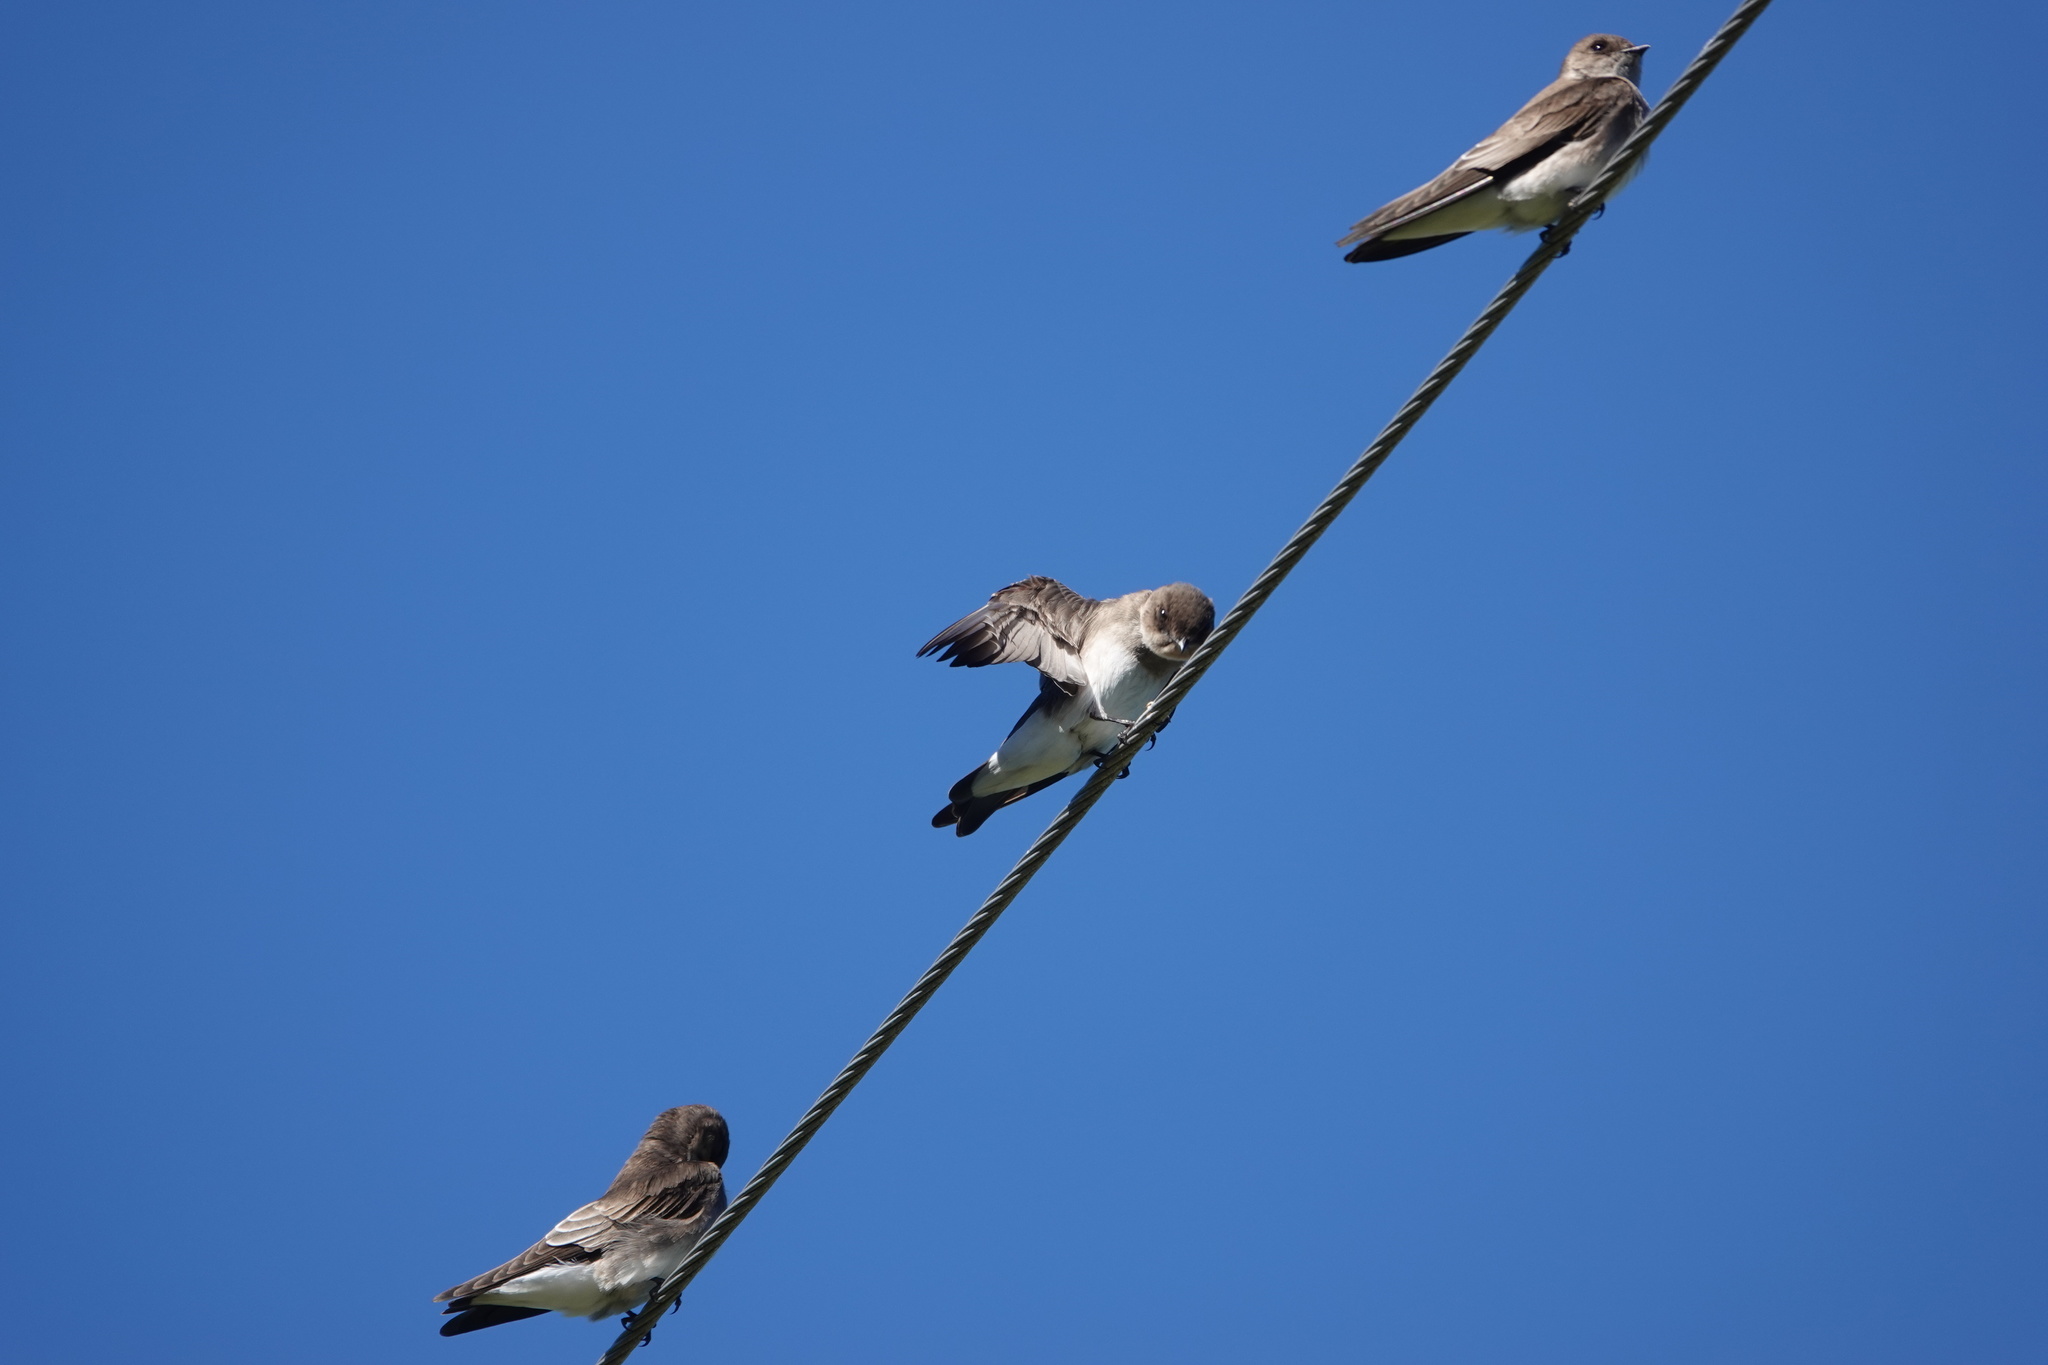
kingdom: Animalia
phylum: Chordata
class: Aves
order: Passeriformes
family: Hirundinidae
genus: Stelgidopteryx
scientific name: Stelgidopteryx serripennis
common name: Northern rough-winged swallow
